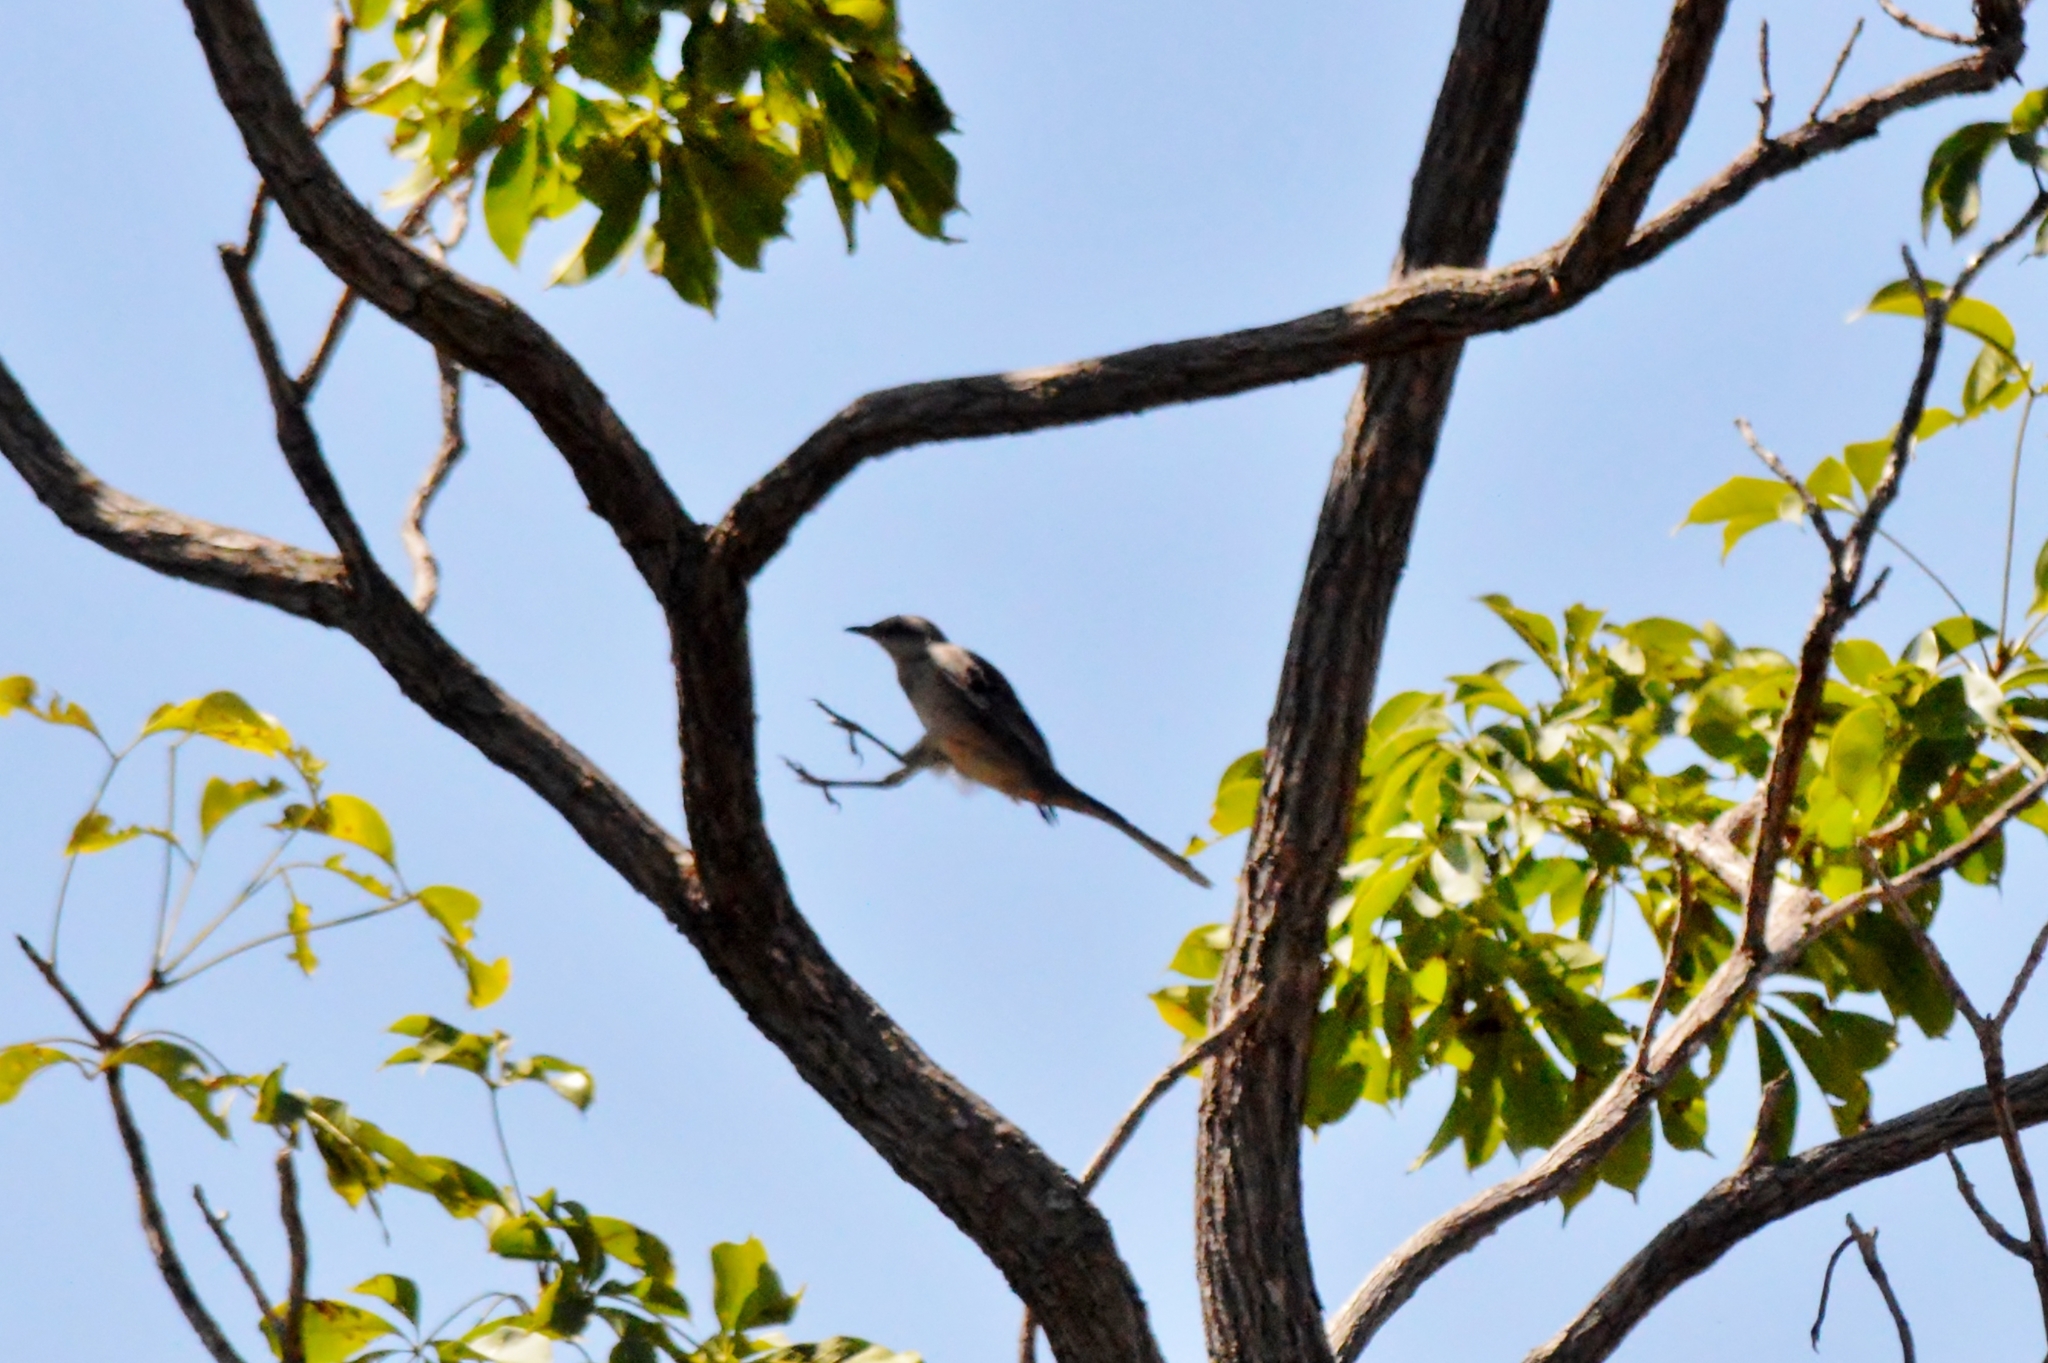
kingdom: Animalia
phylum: Chordata
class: Aves
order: Passeriformes
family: Mimidae
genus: Mimus
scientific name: Mimus saturninus
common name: Chalk-browed mockingbird
